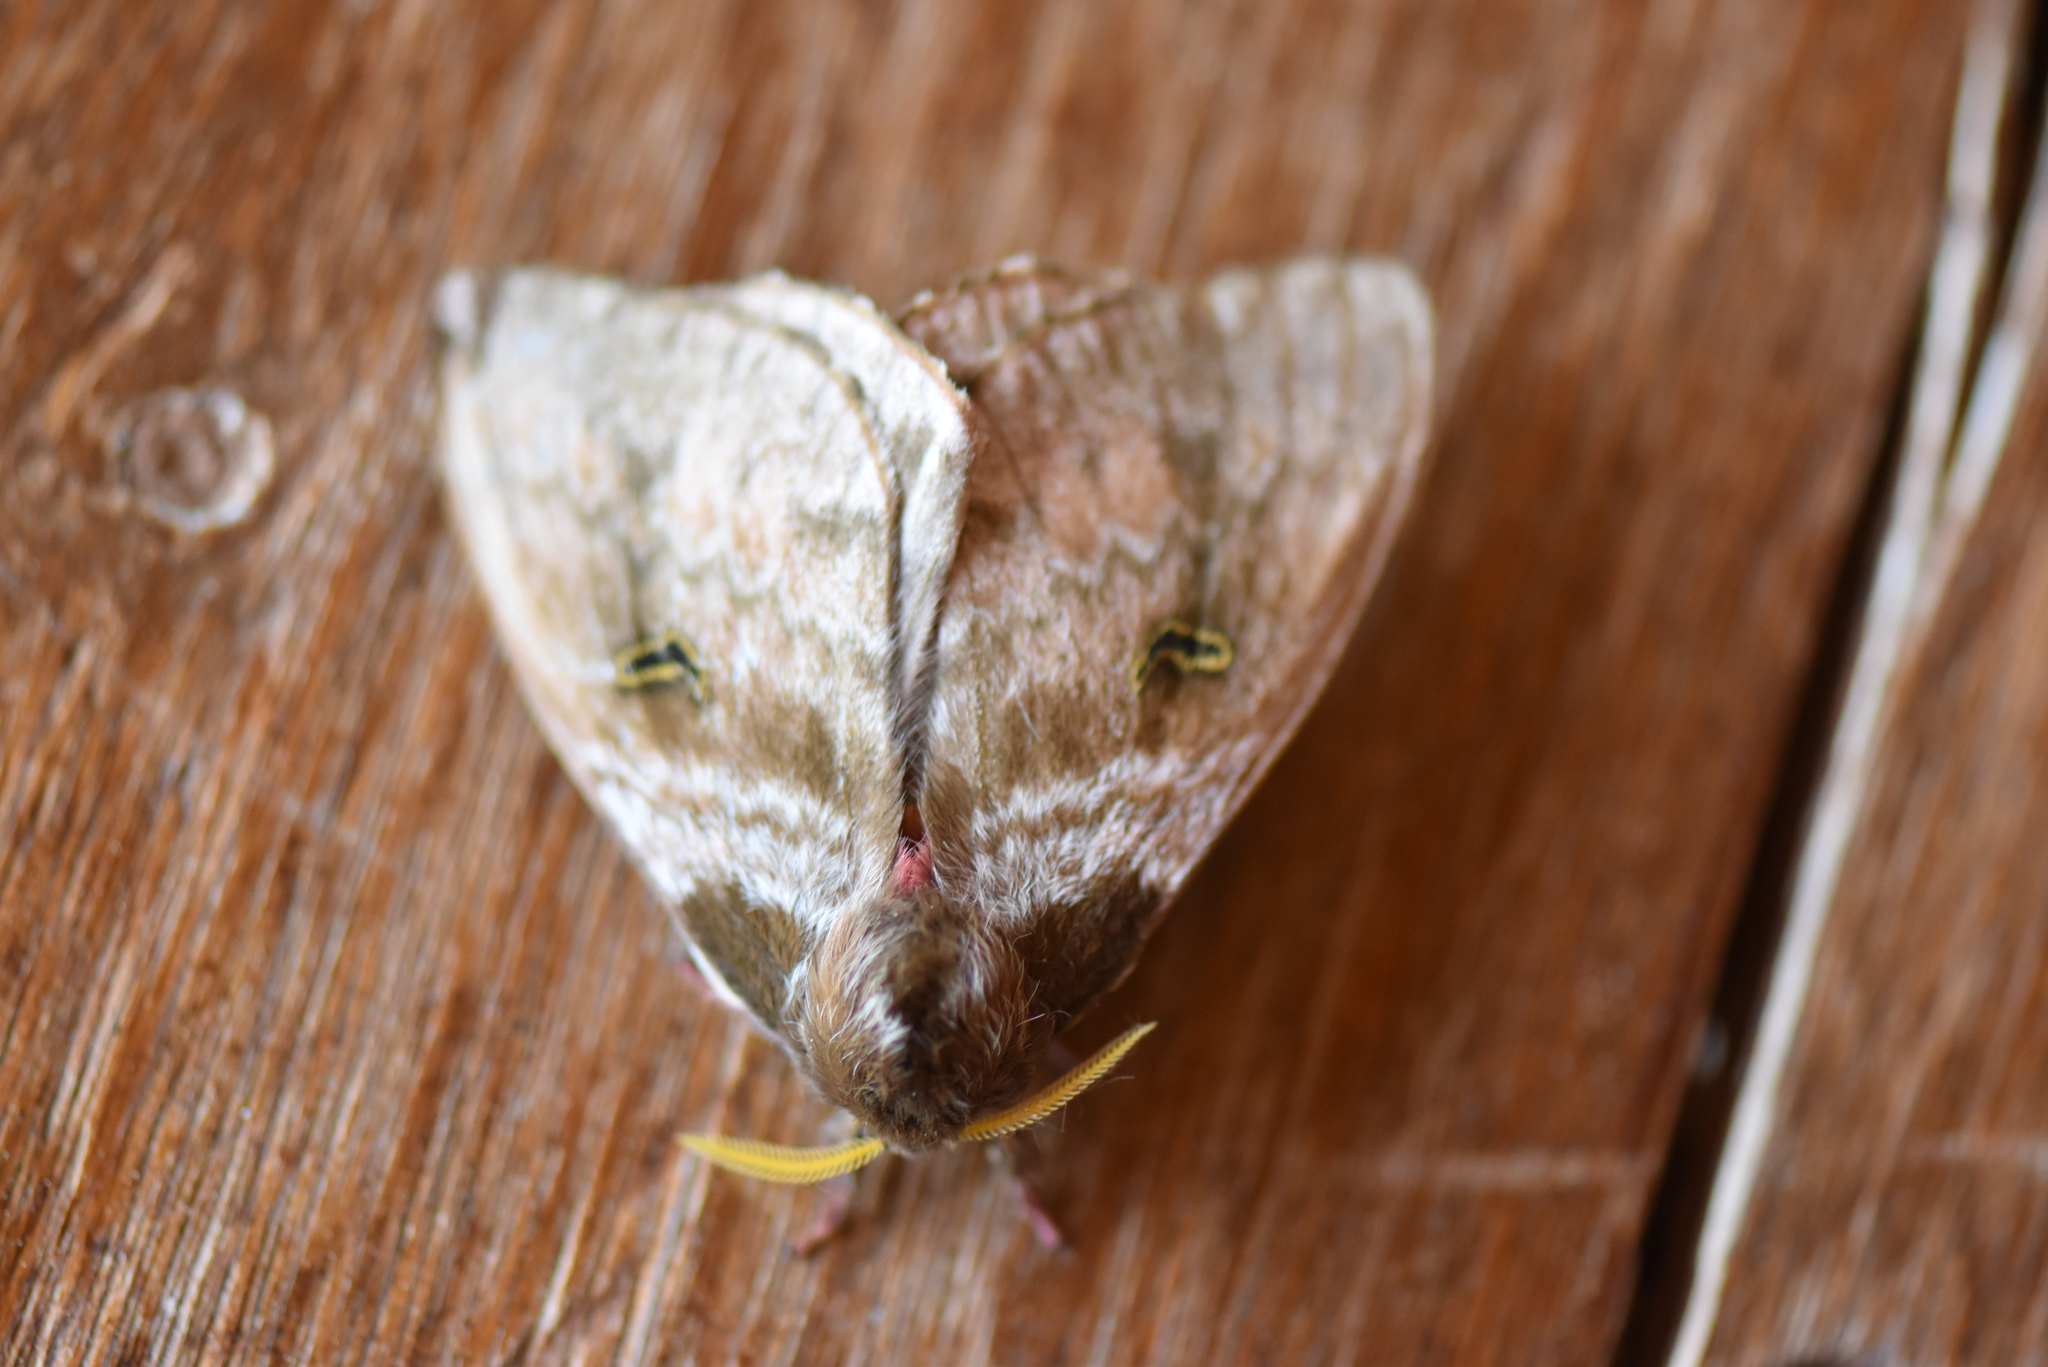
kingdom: Animalia
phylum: Arthropoda
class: Insecta
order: Lepidoptera
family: Saturniidae
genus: Hidripa
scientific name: Hidripa taglia
